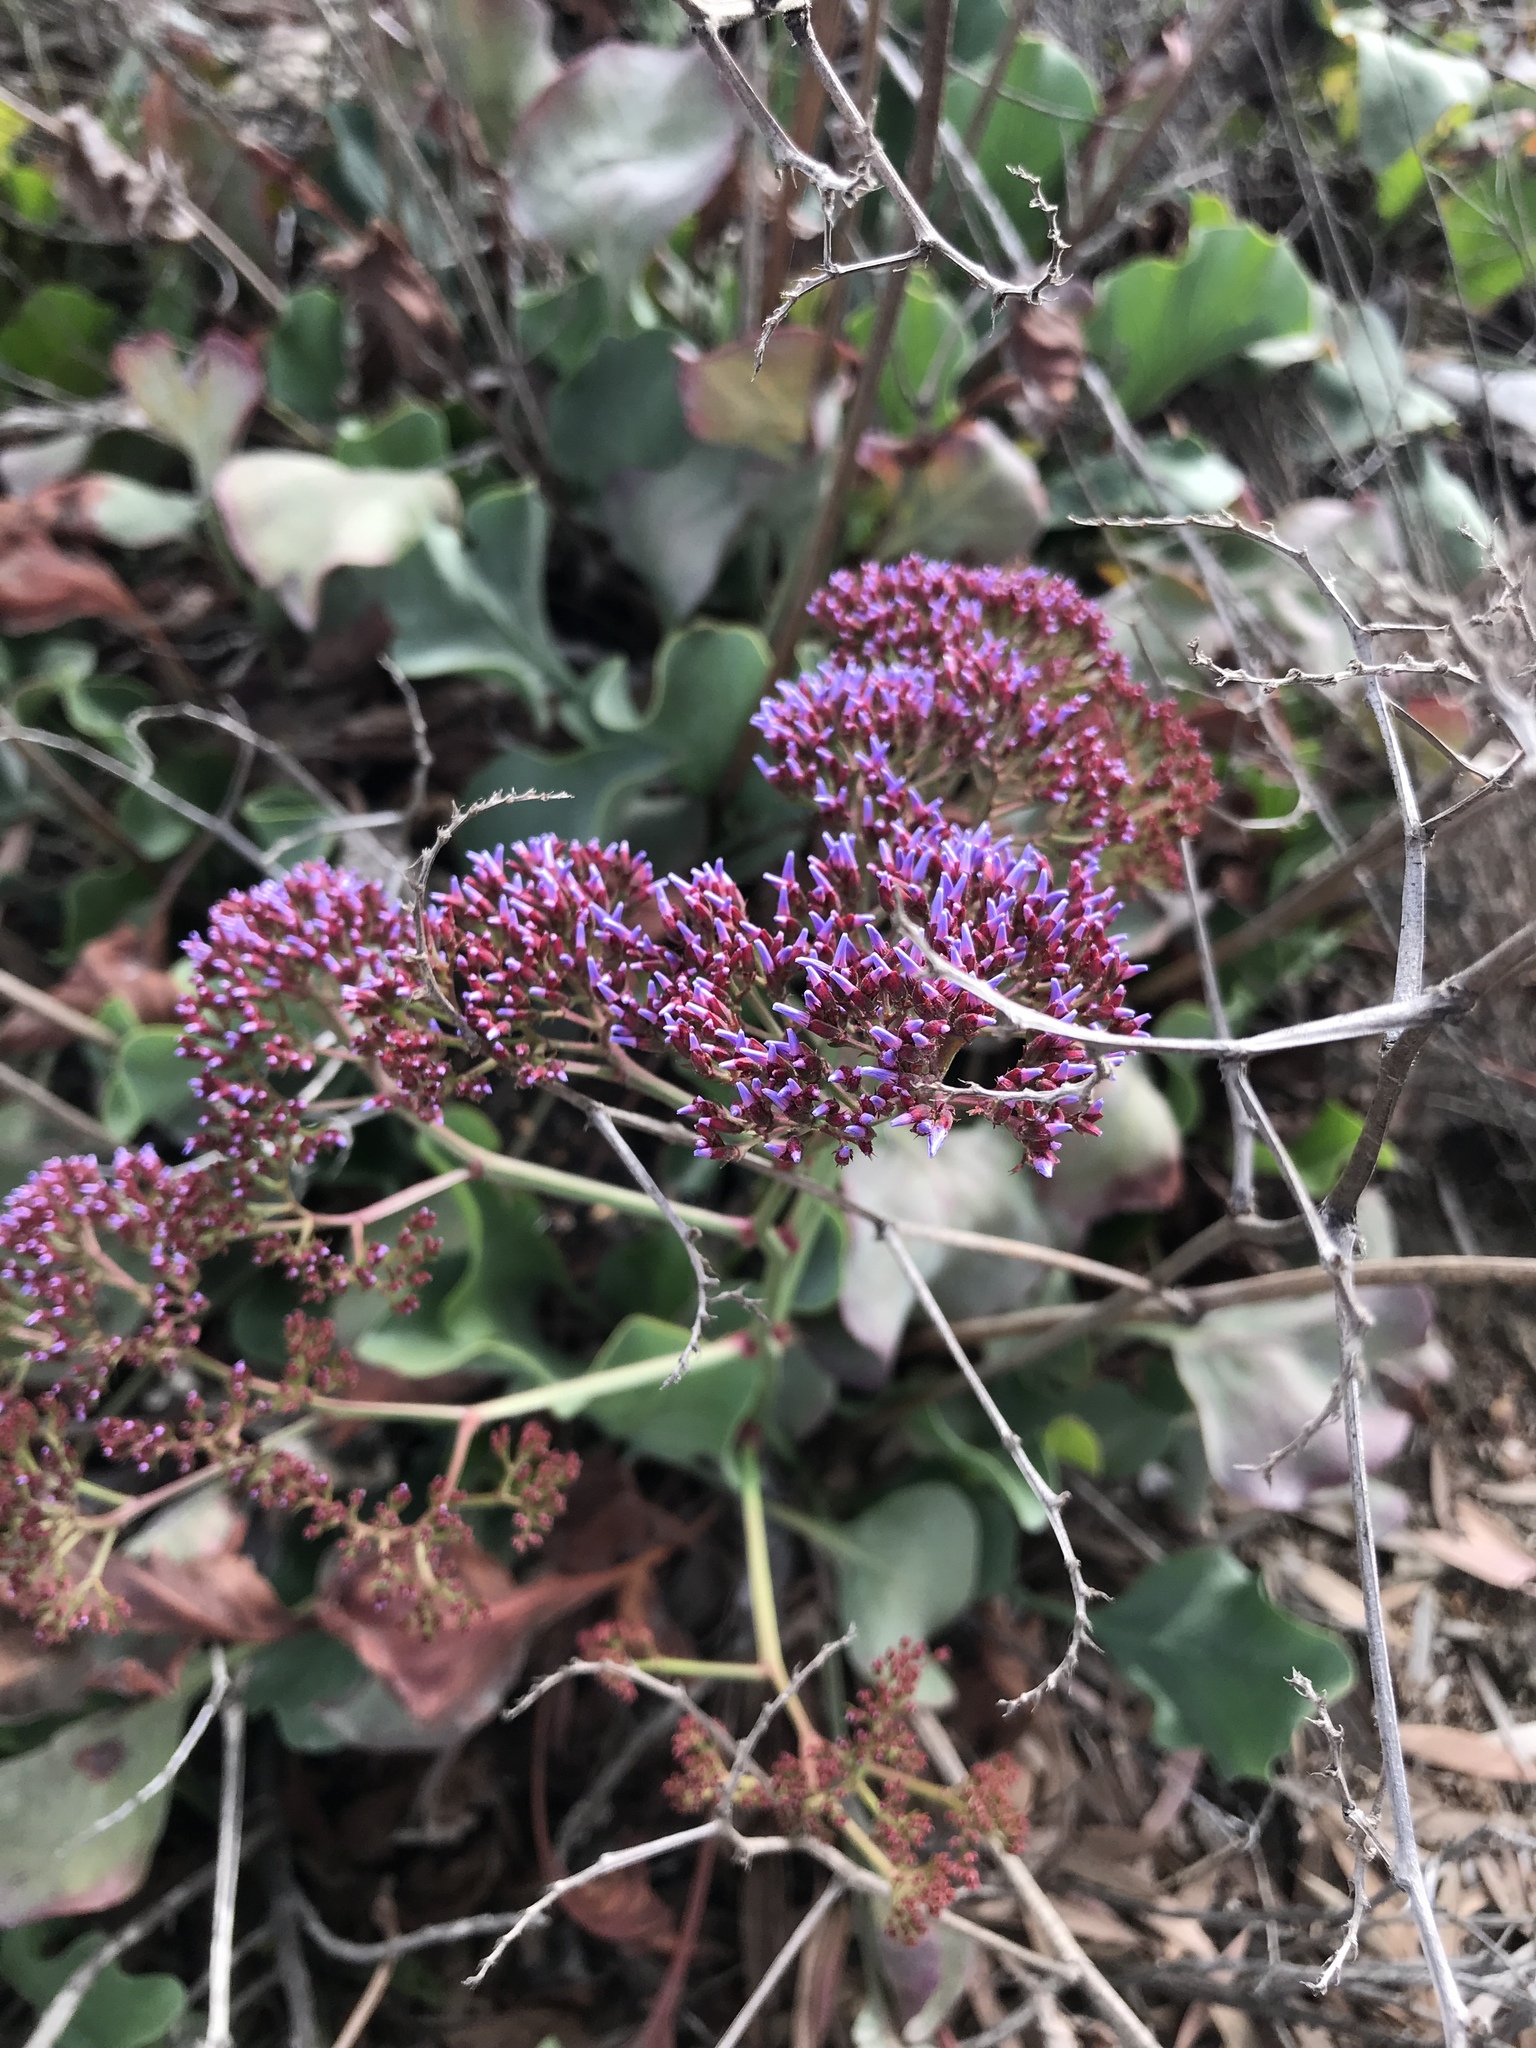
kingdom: Plantae
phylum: Tracheophyta
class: Magnoliopsida
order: Caryophyllales
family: Plumbaginaceae
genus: Limonium
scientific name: Limonium perezii
